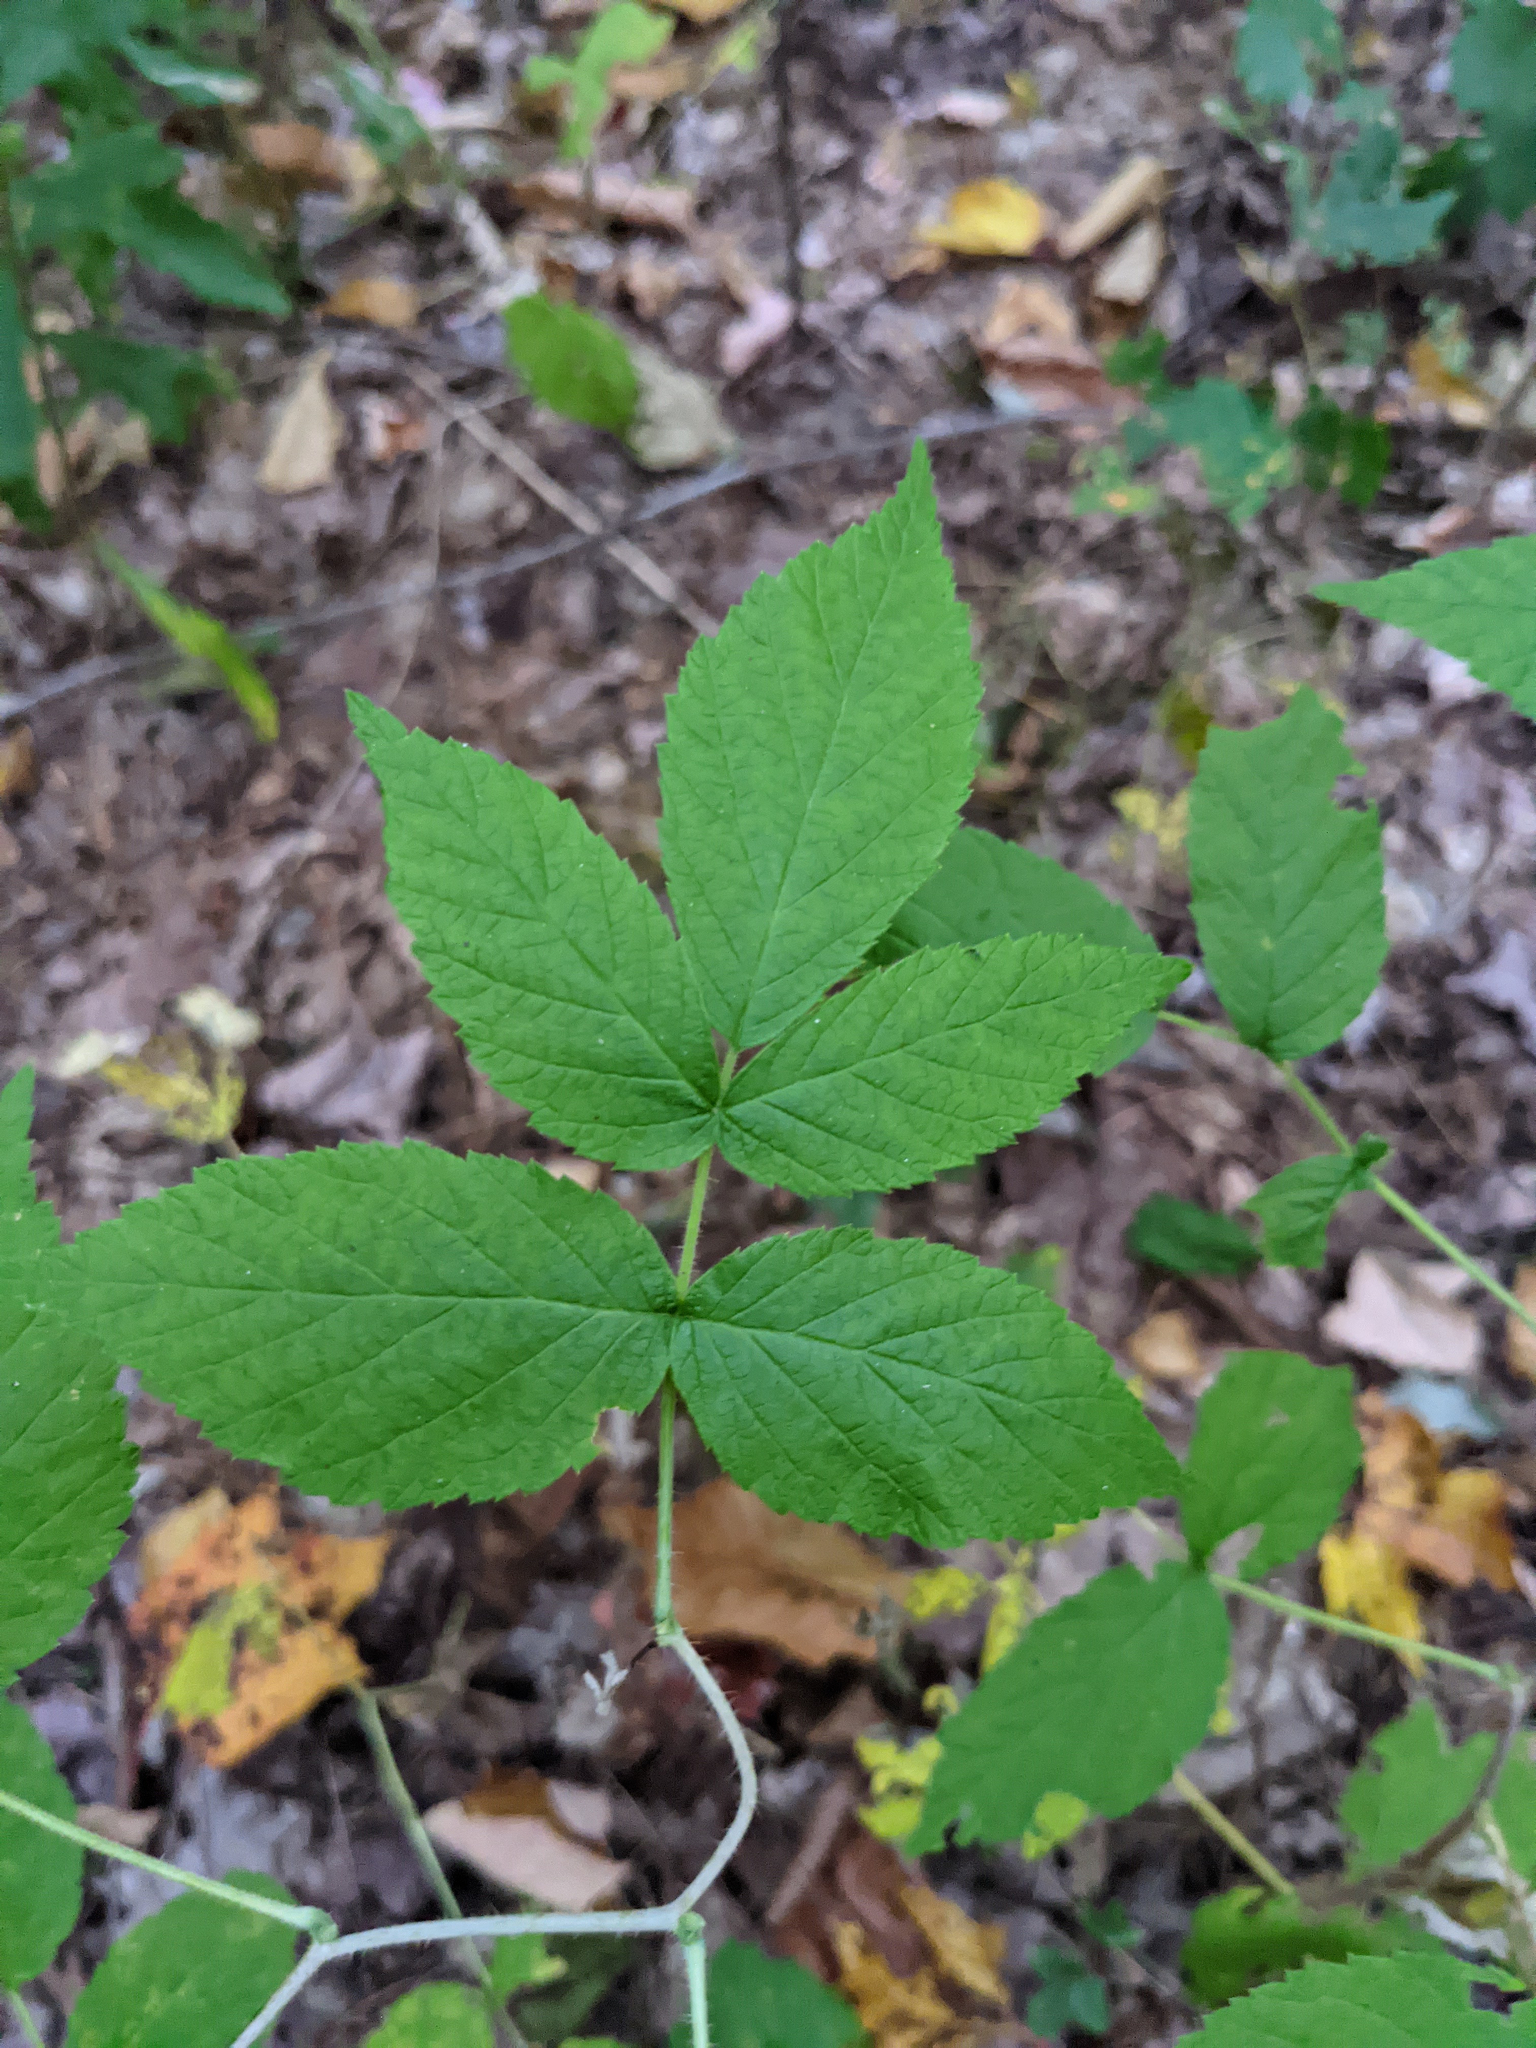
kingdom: Plantae
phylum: Tracheophyta
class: Magnoliopsida
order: Rosales
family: Rosaceae
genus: Rubus
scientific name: Rubus idaeus
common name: Raspberry
